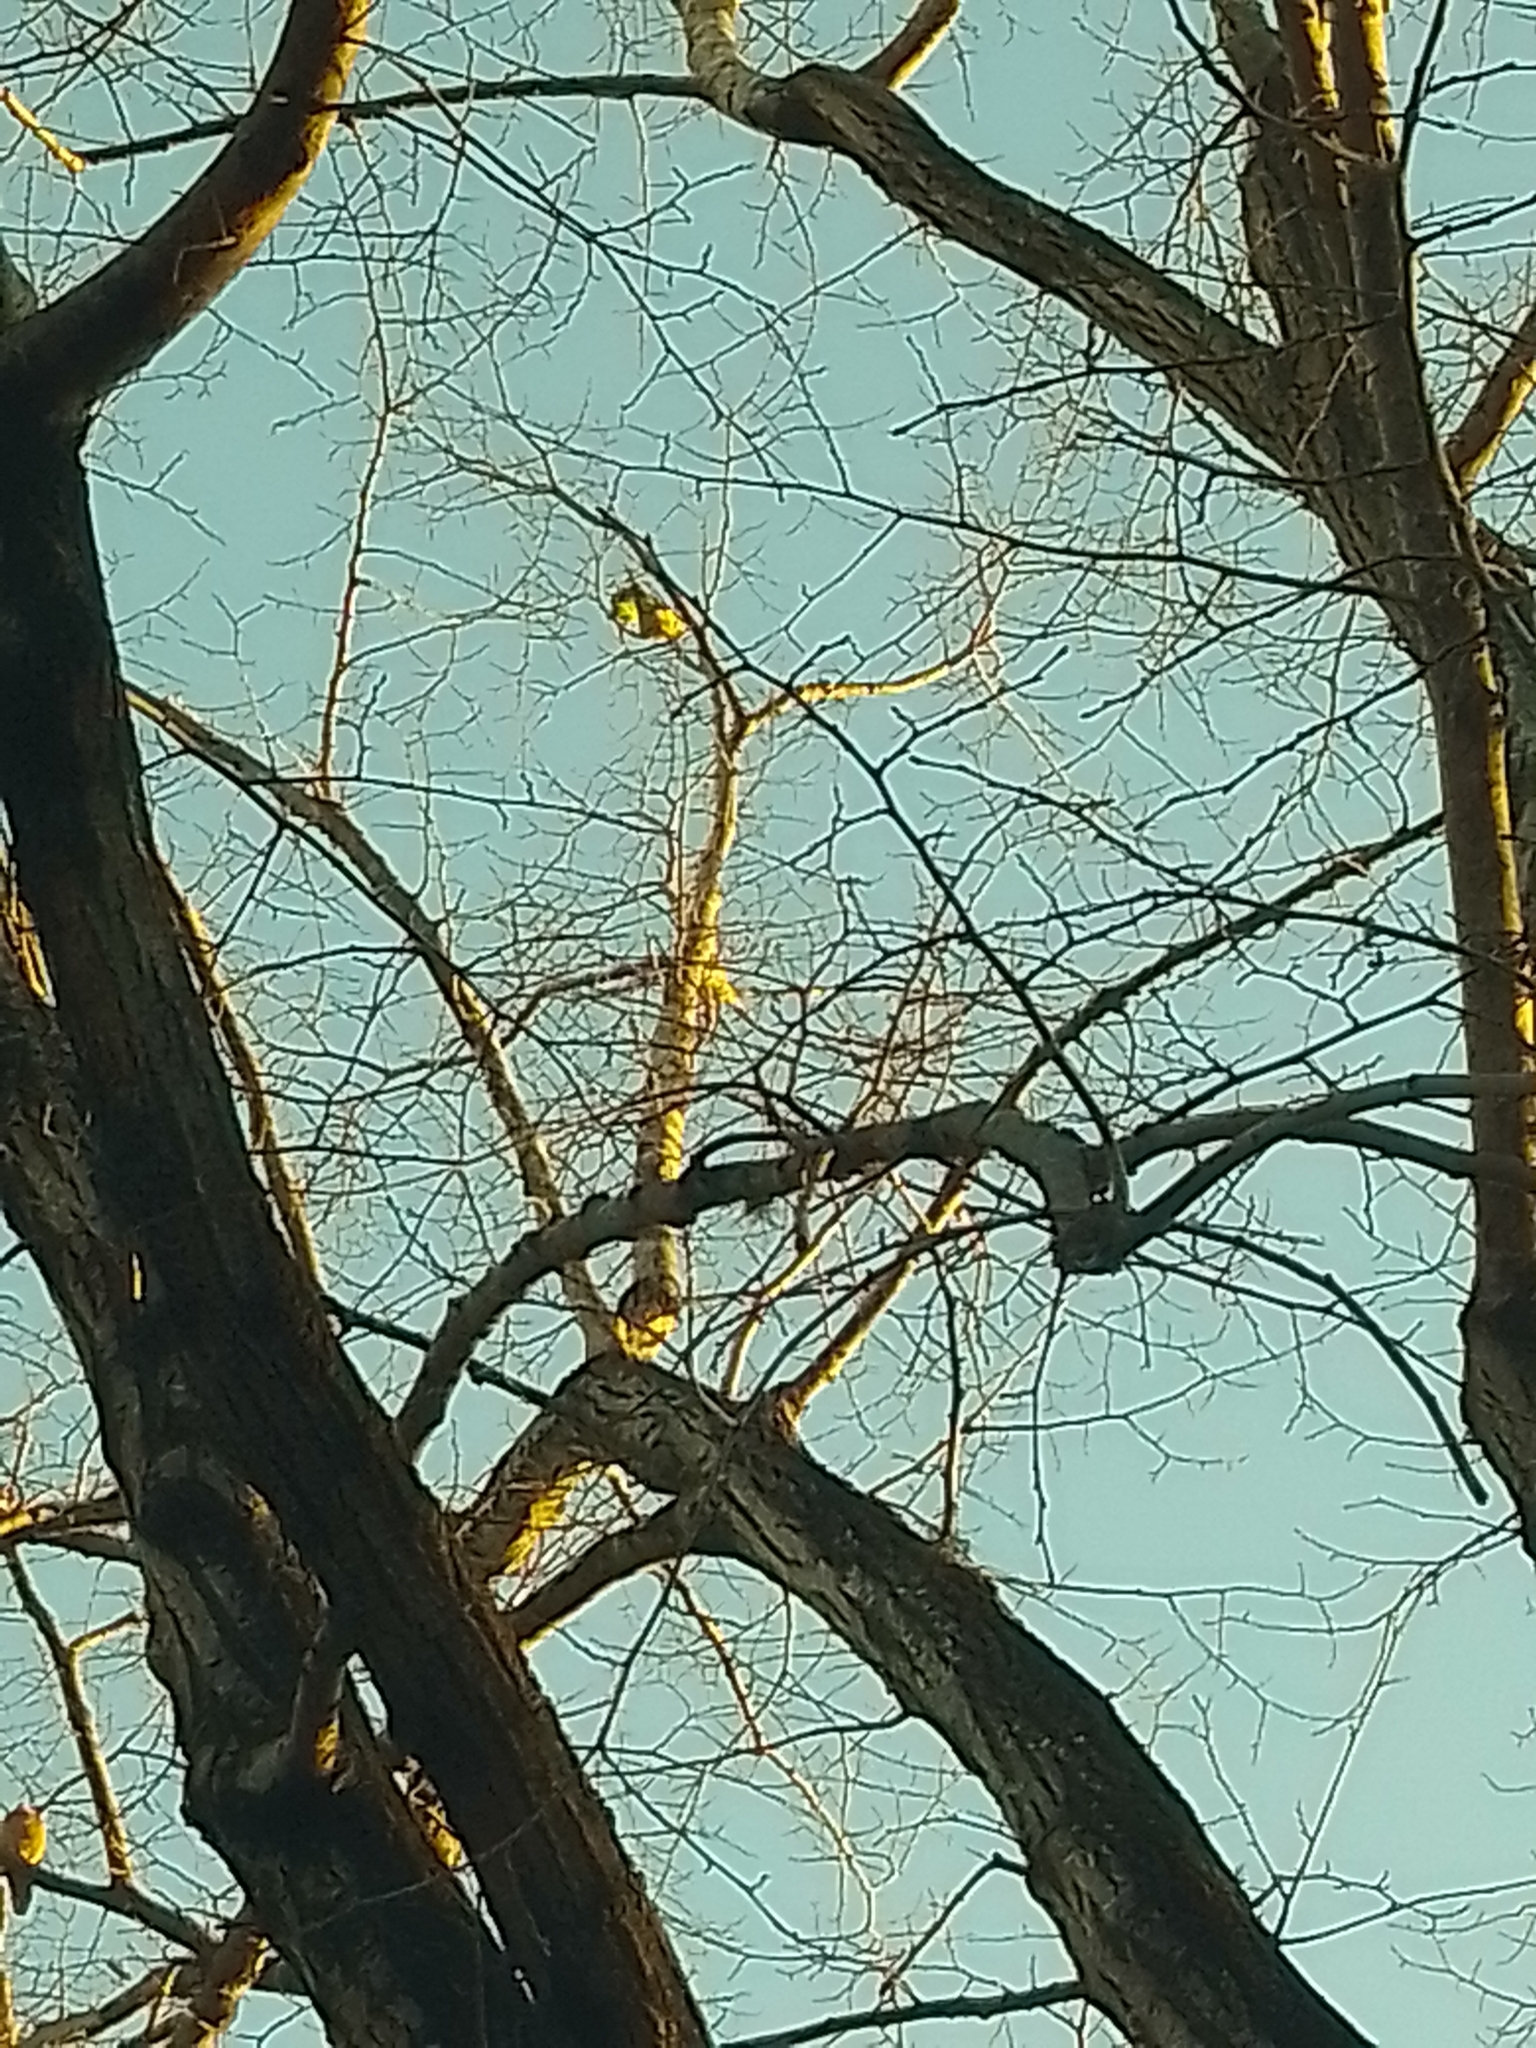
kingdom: Animalia
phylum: Chordata
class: Aves
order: Psittaciformes
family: Psittacidae
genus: Brotogeris
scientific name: Brotogeris chiriri
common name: Yellow-chevroned parakeet
